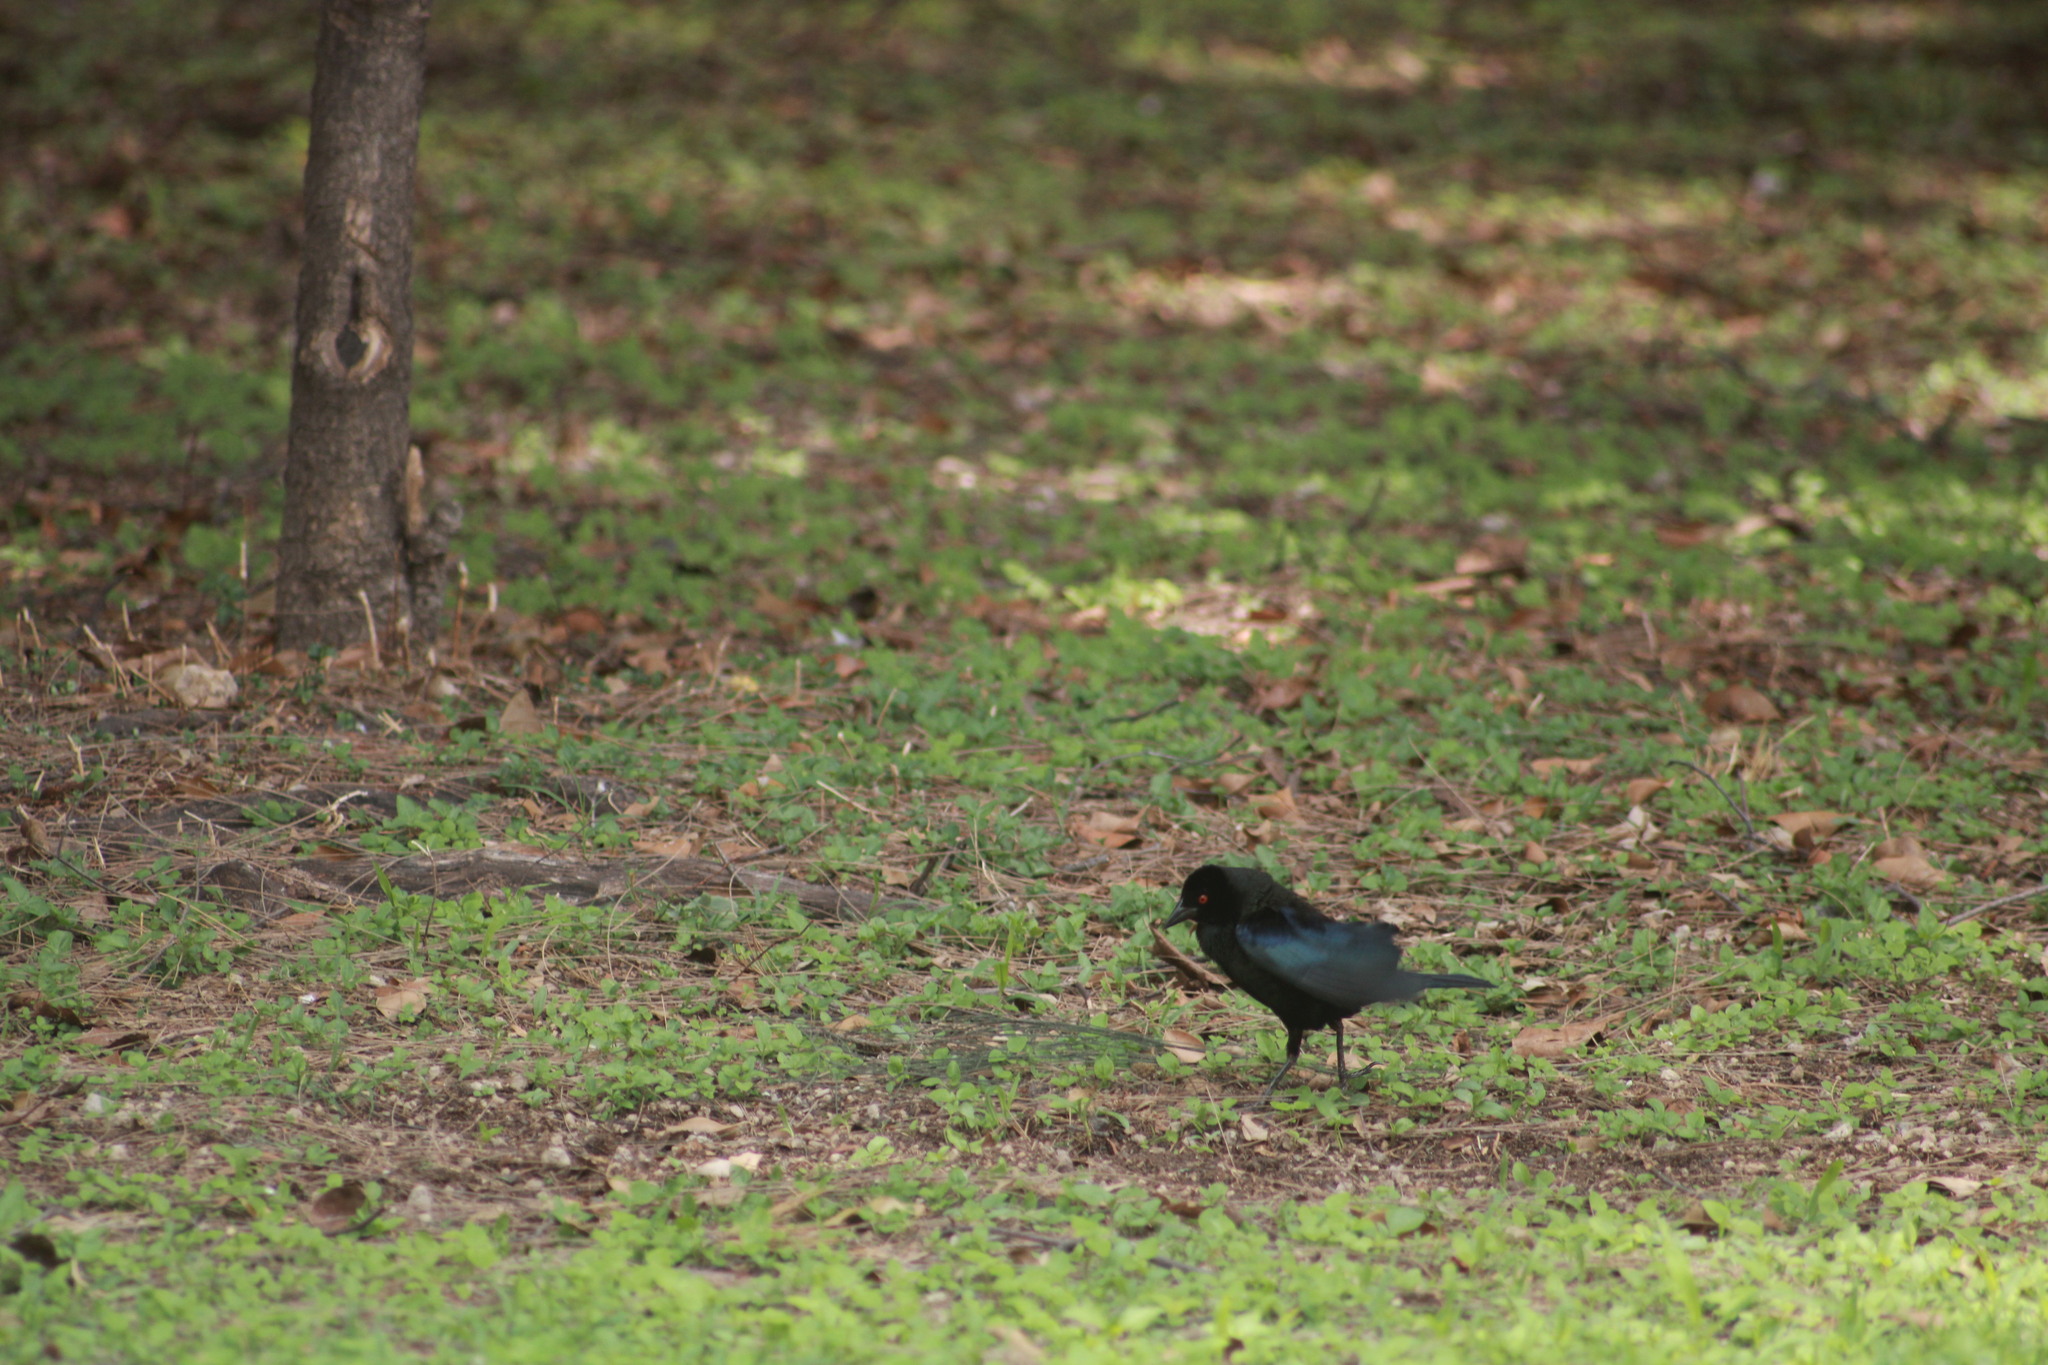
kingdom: Animalia
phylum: Chordata
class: Aves
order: Passeriformes
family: Icteridae
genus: Molothrus
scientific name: Molothrus aeneus
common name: Bronzed cowbird
